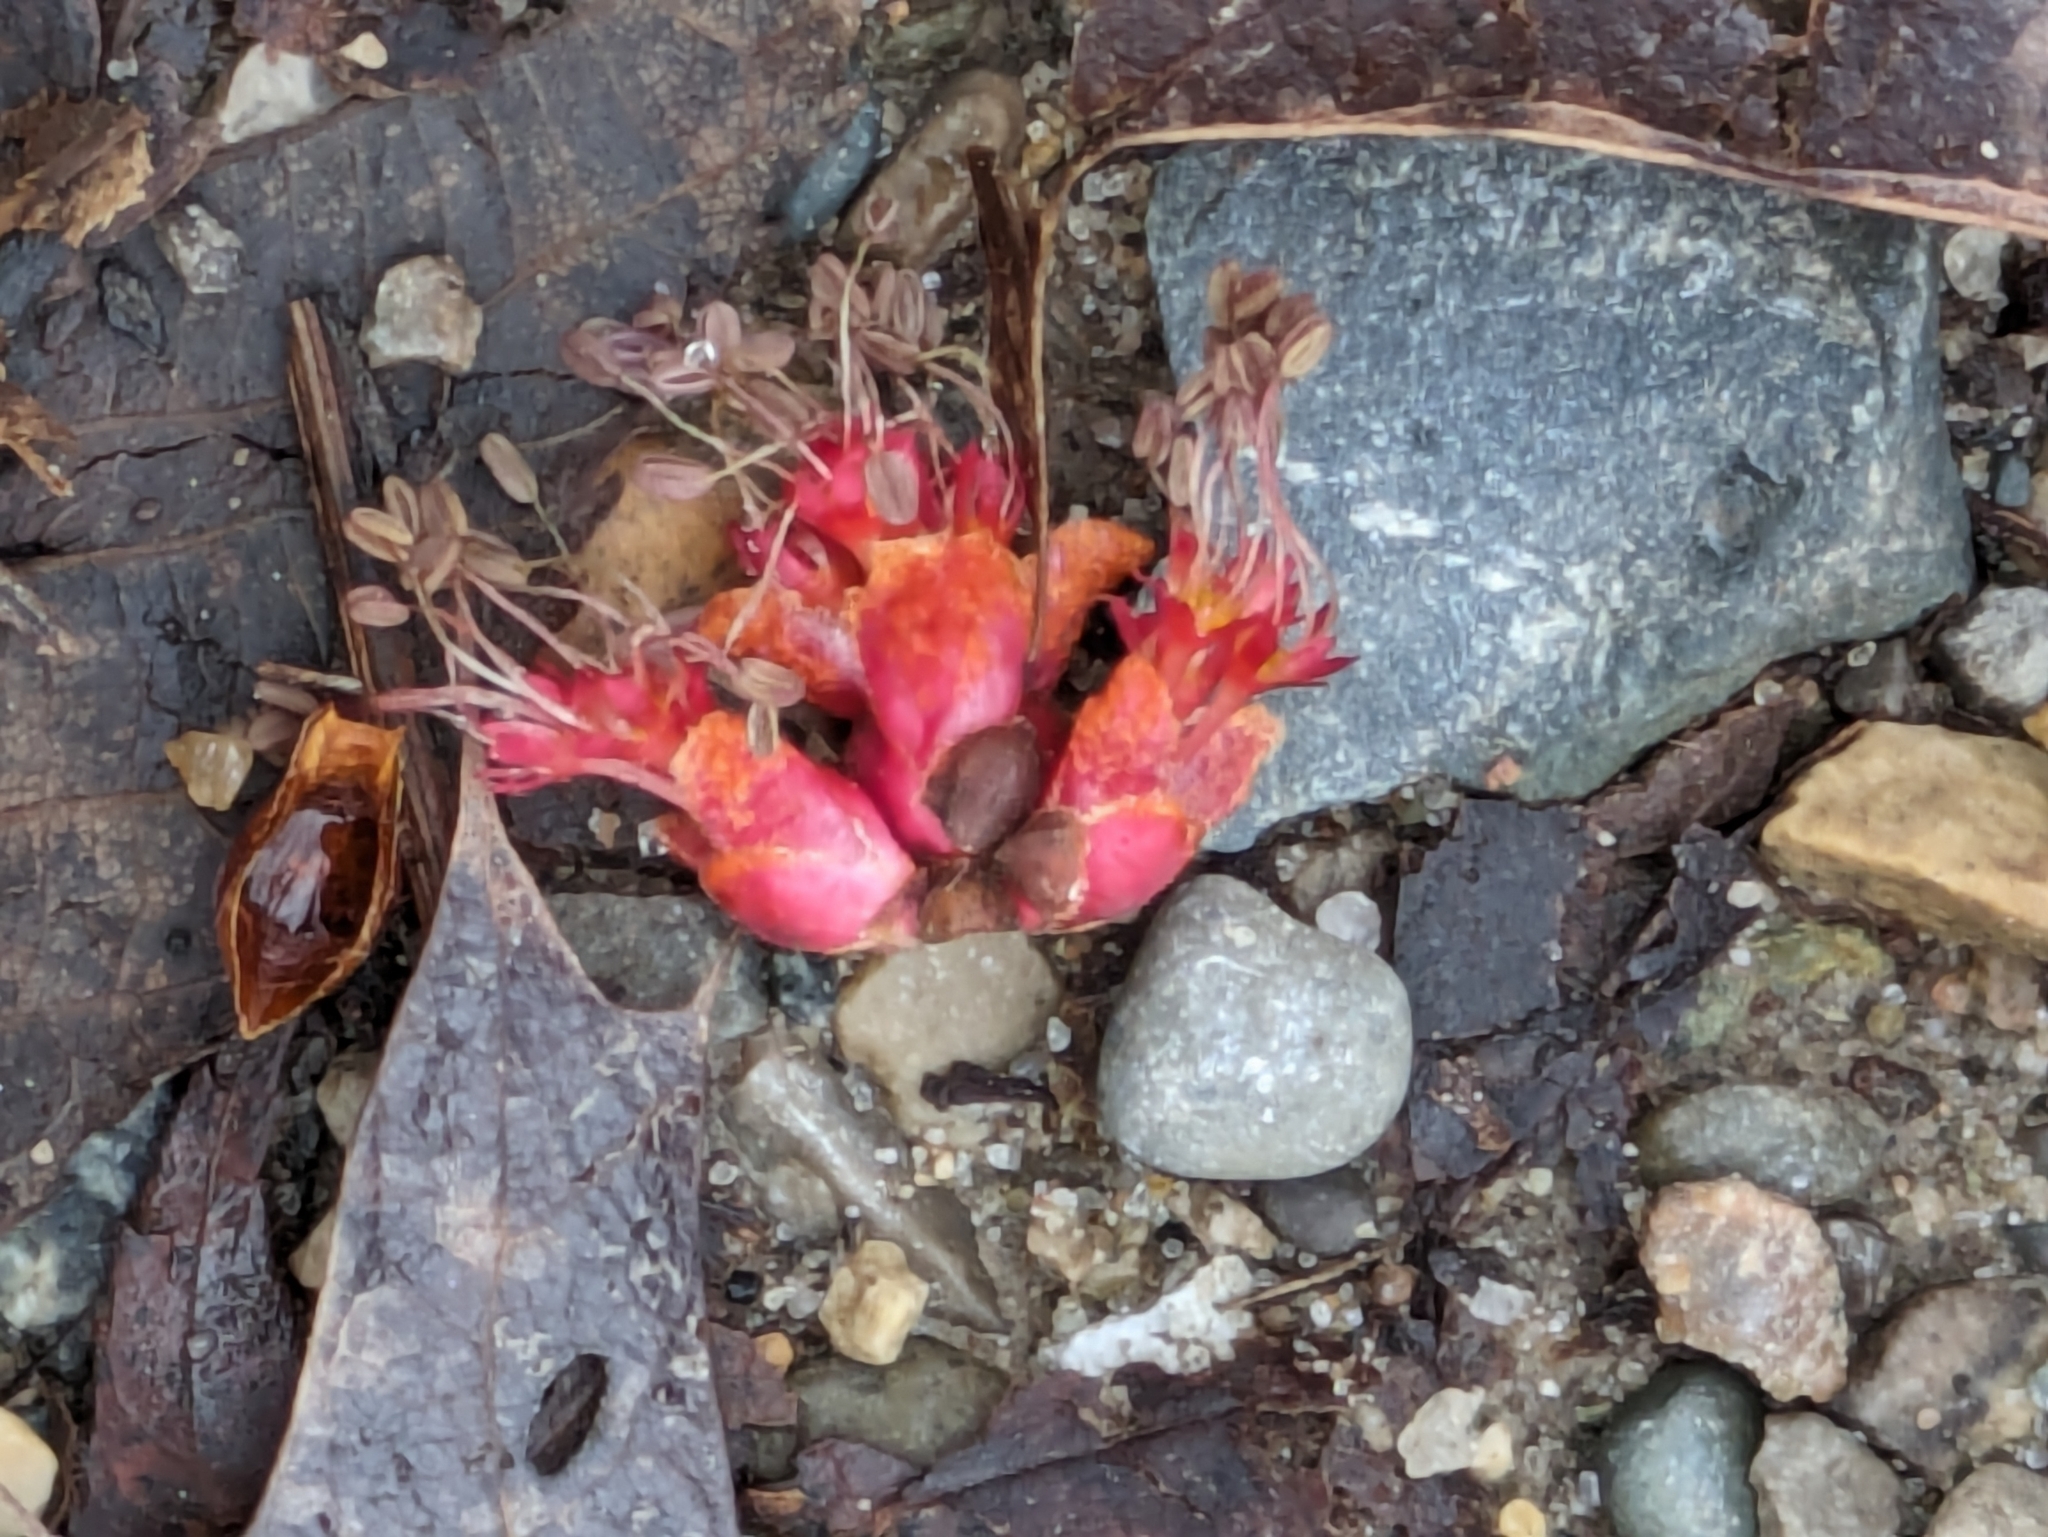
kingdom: Plantae
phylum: Tracheophyta
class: Magnoliopsida
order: Sapindales
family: Sapindaceae
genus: Acer
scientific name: Acer rubrum
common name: Red maple
